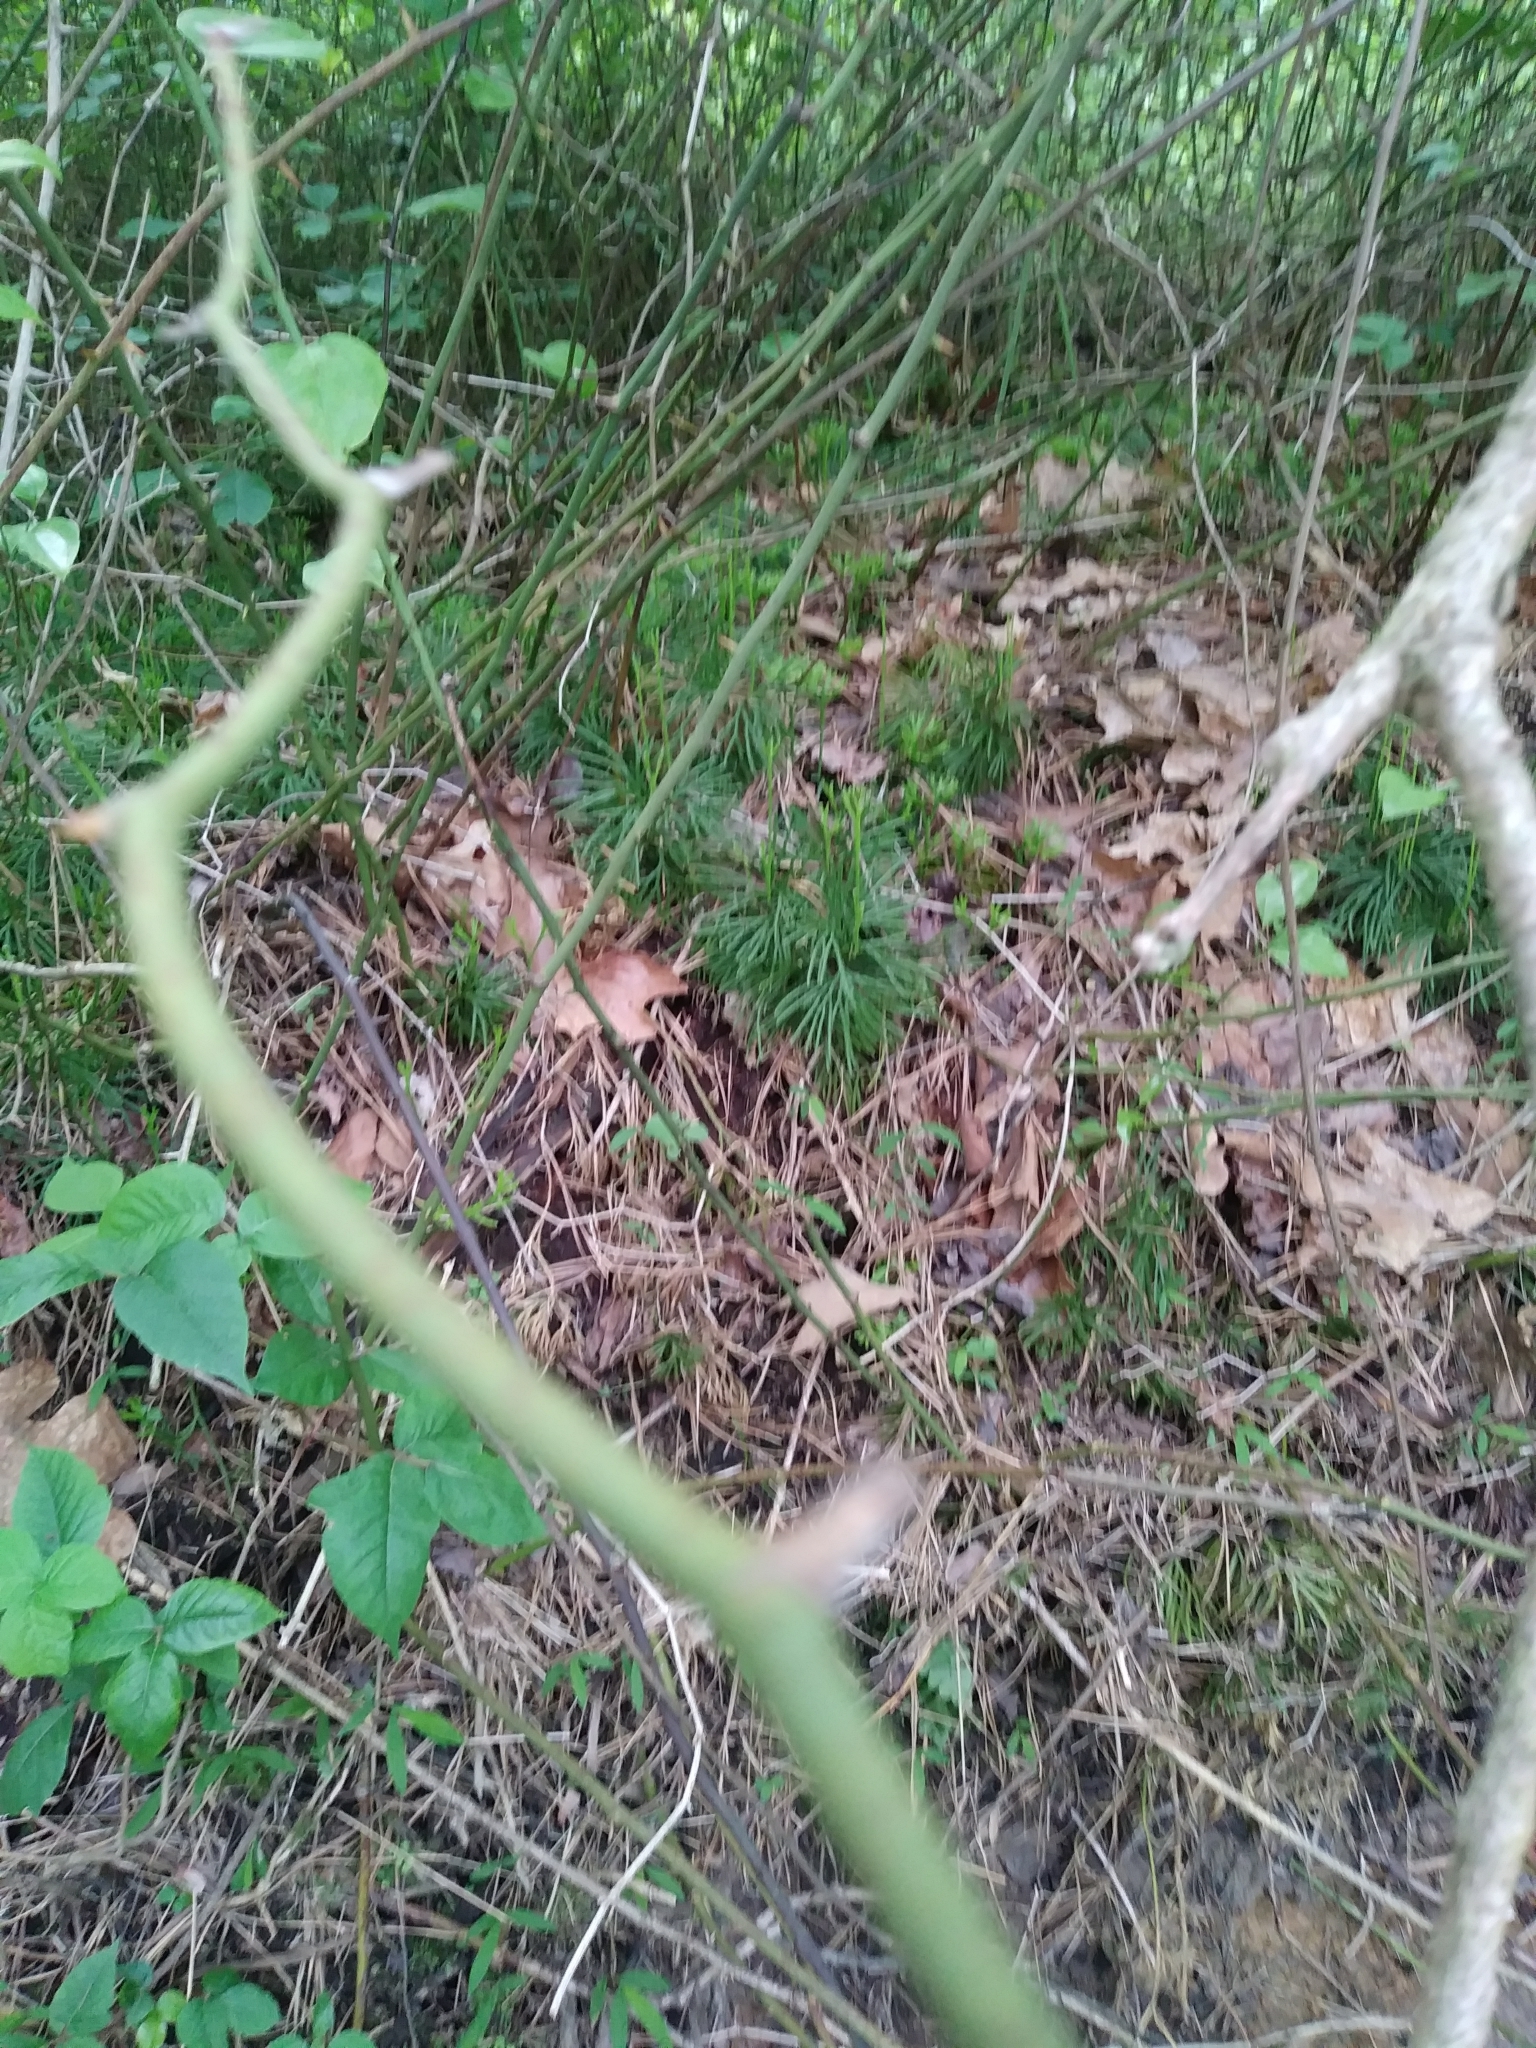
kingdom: Plantae
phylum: Tracheophyta
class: Lycopodiopsida
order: Lycopodiales
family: Lycopodiaceae
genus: Diphasiastrum
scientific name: Diphasiastrum digitatum
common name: Southern running-pine
